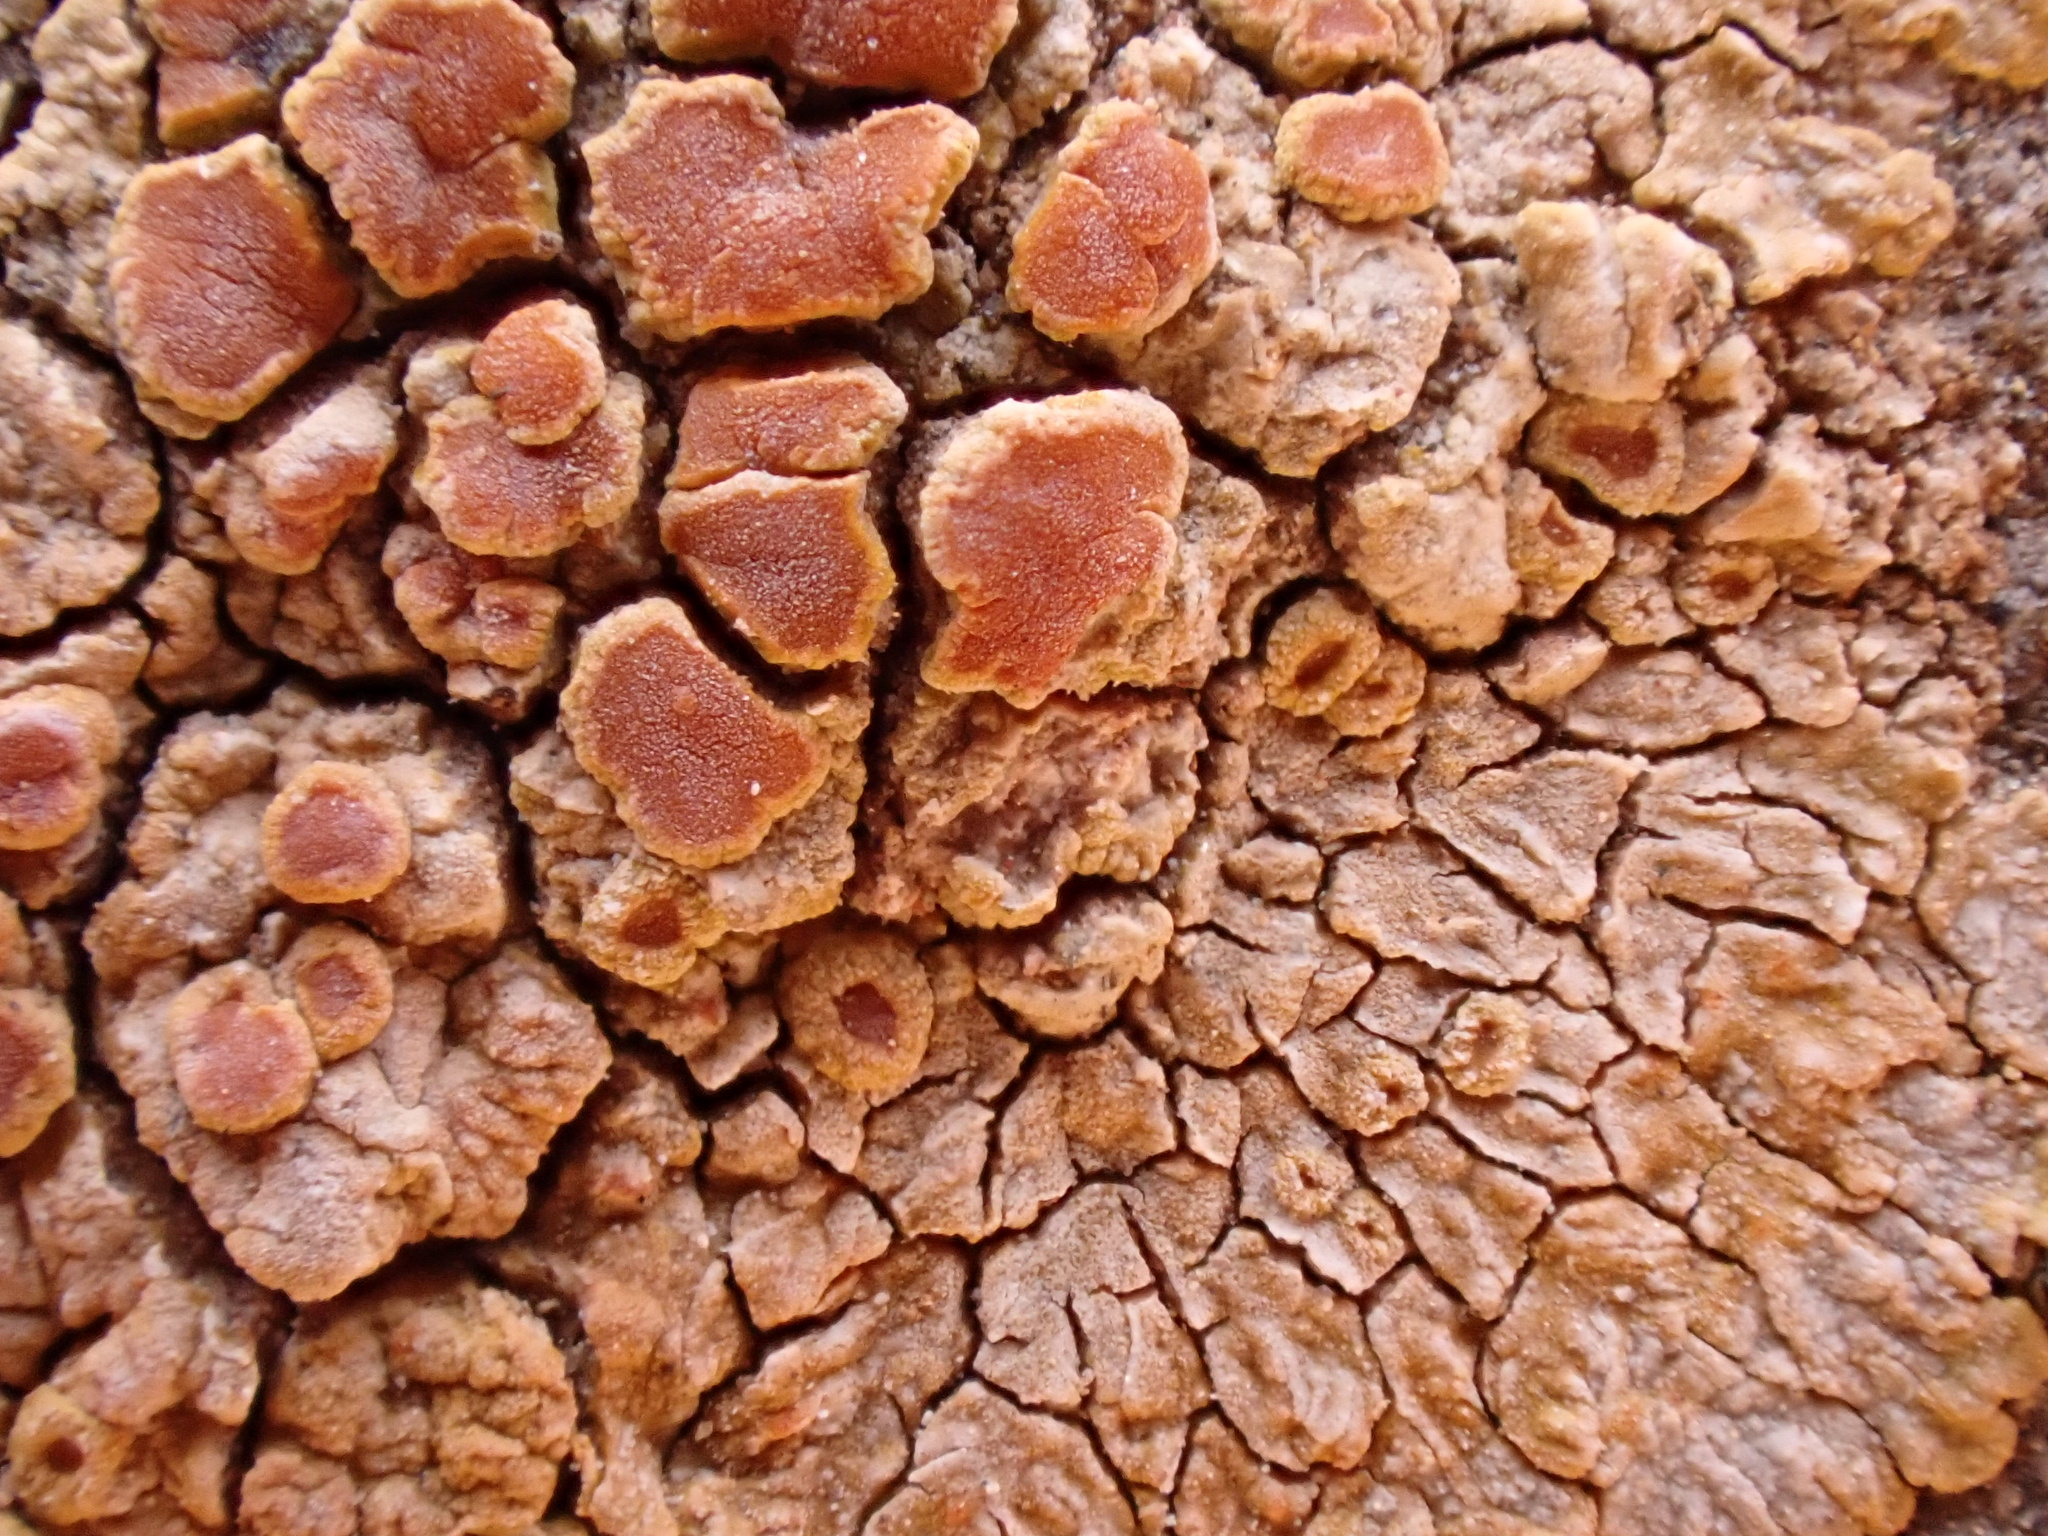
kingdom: Fungi
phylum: Ascomycota
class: Lecanoromycetes
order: Teloschistales
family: Teloschistaceae
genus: Variospora
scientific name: Variospora aurantia
